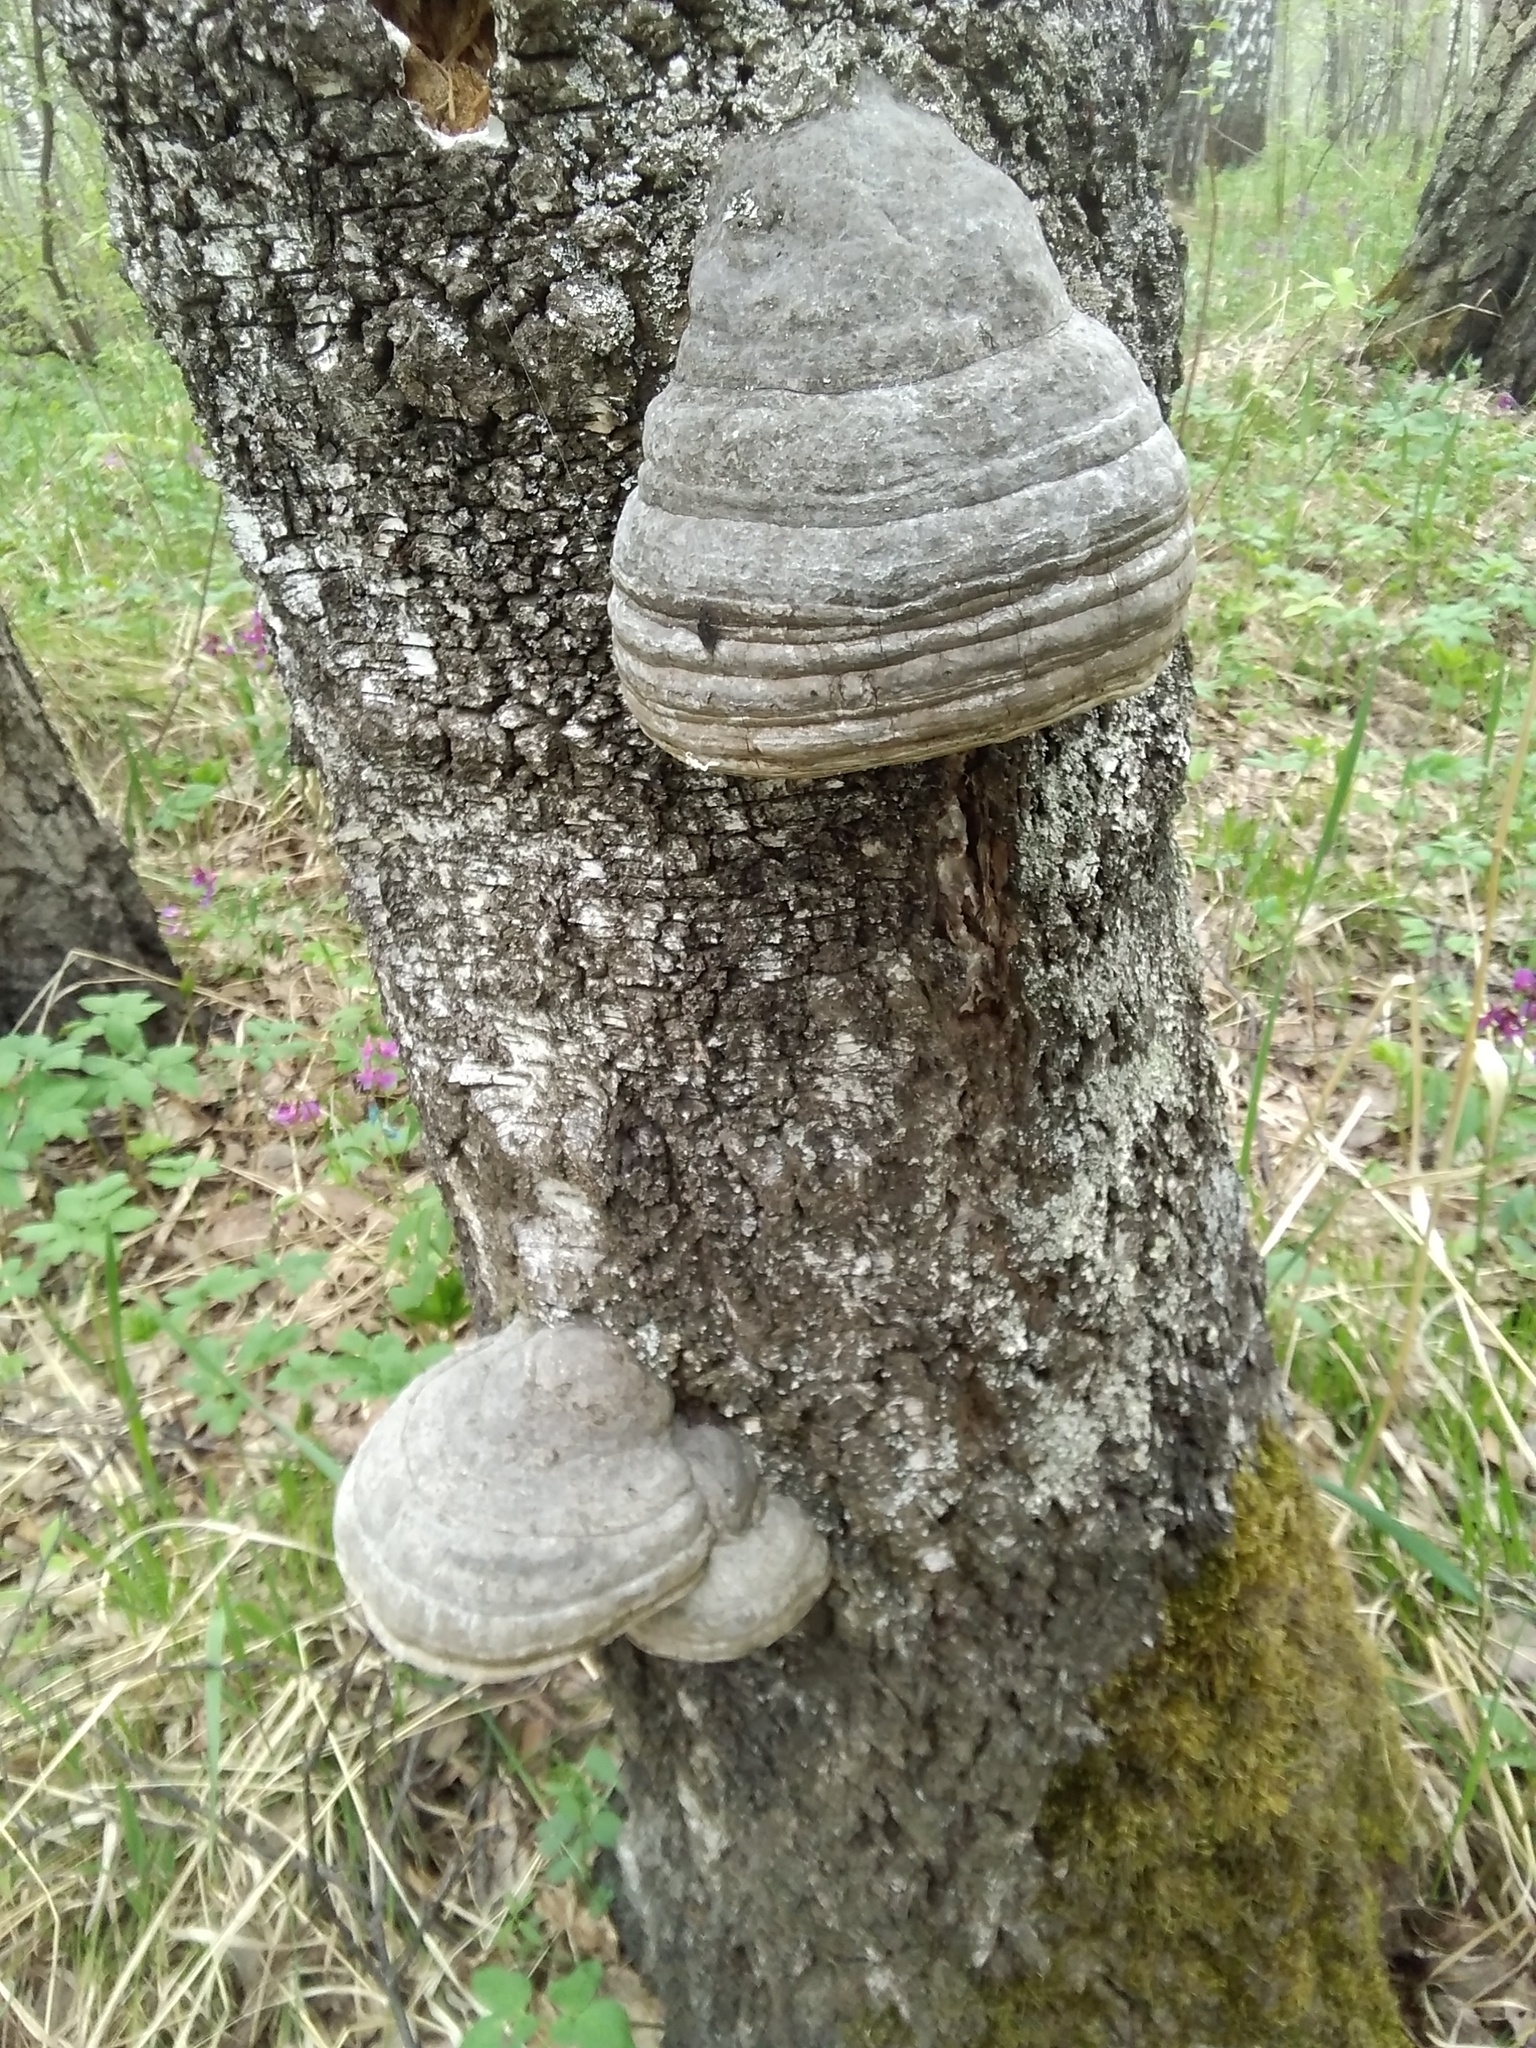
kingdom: Fungi
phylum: Basidiomycota
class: Agaricomycetes
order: Polyporales
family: Polyporaceae
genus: Fomes
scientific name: Fomes fomentarius
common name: Hoof fungus
